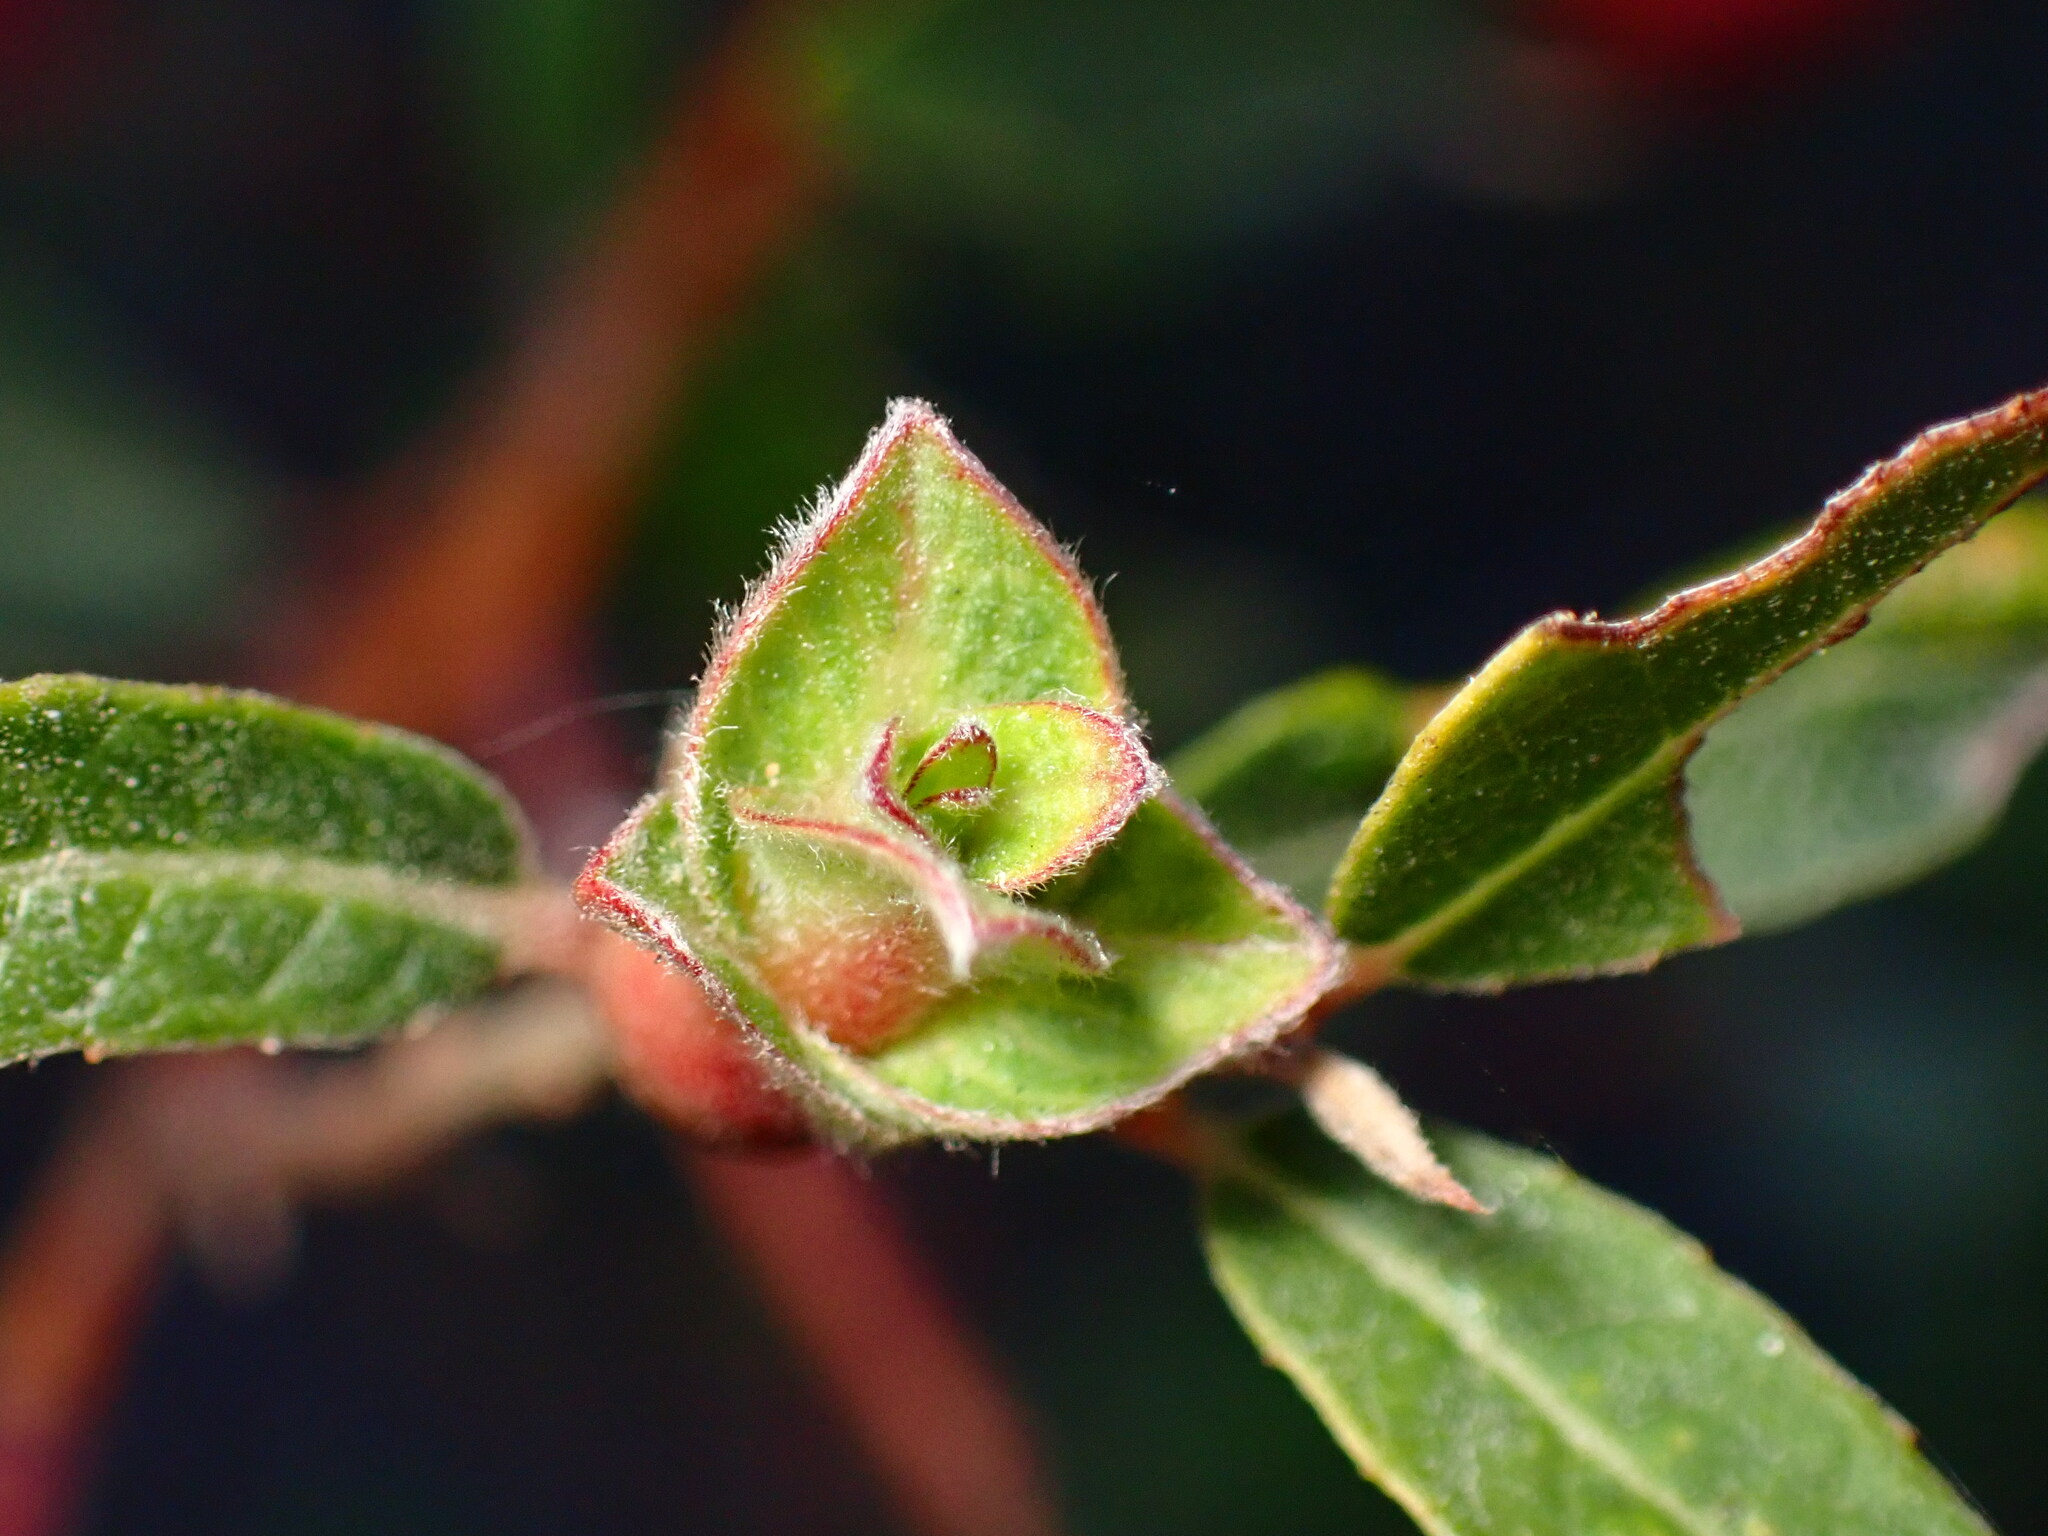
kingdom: Animalia
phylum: Arthropoda
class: Insecta
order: Diptera
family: Cecidomyiidae
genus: Rabdophaga
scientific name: Rabdophaga salicisbrassicoides
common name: Willow cabbagegall midge
